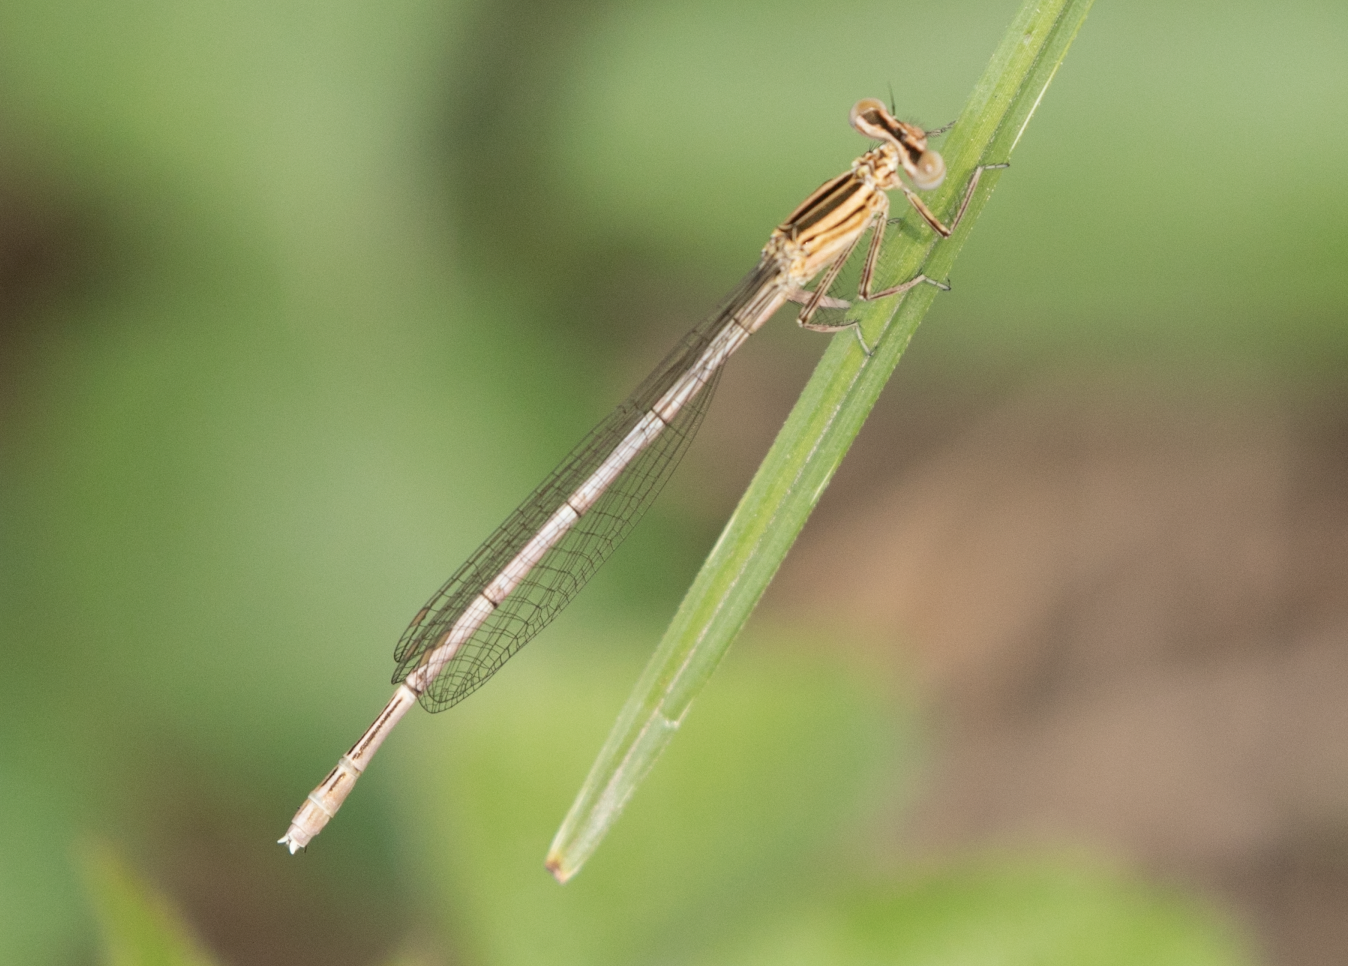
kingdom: Animalia
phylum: Arthropoda
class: Insecta
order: Odonata
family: Platycnemididae
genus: Platycnemis
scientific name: Platycnemis pennipes
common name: White-legged damselfly
